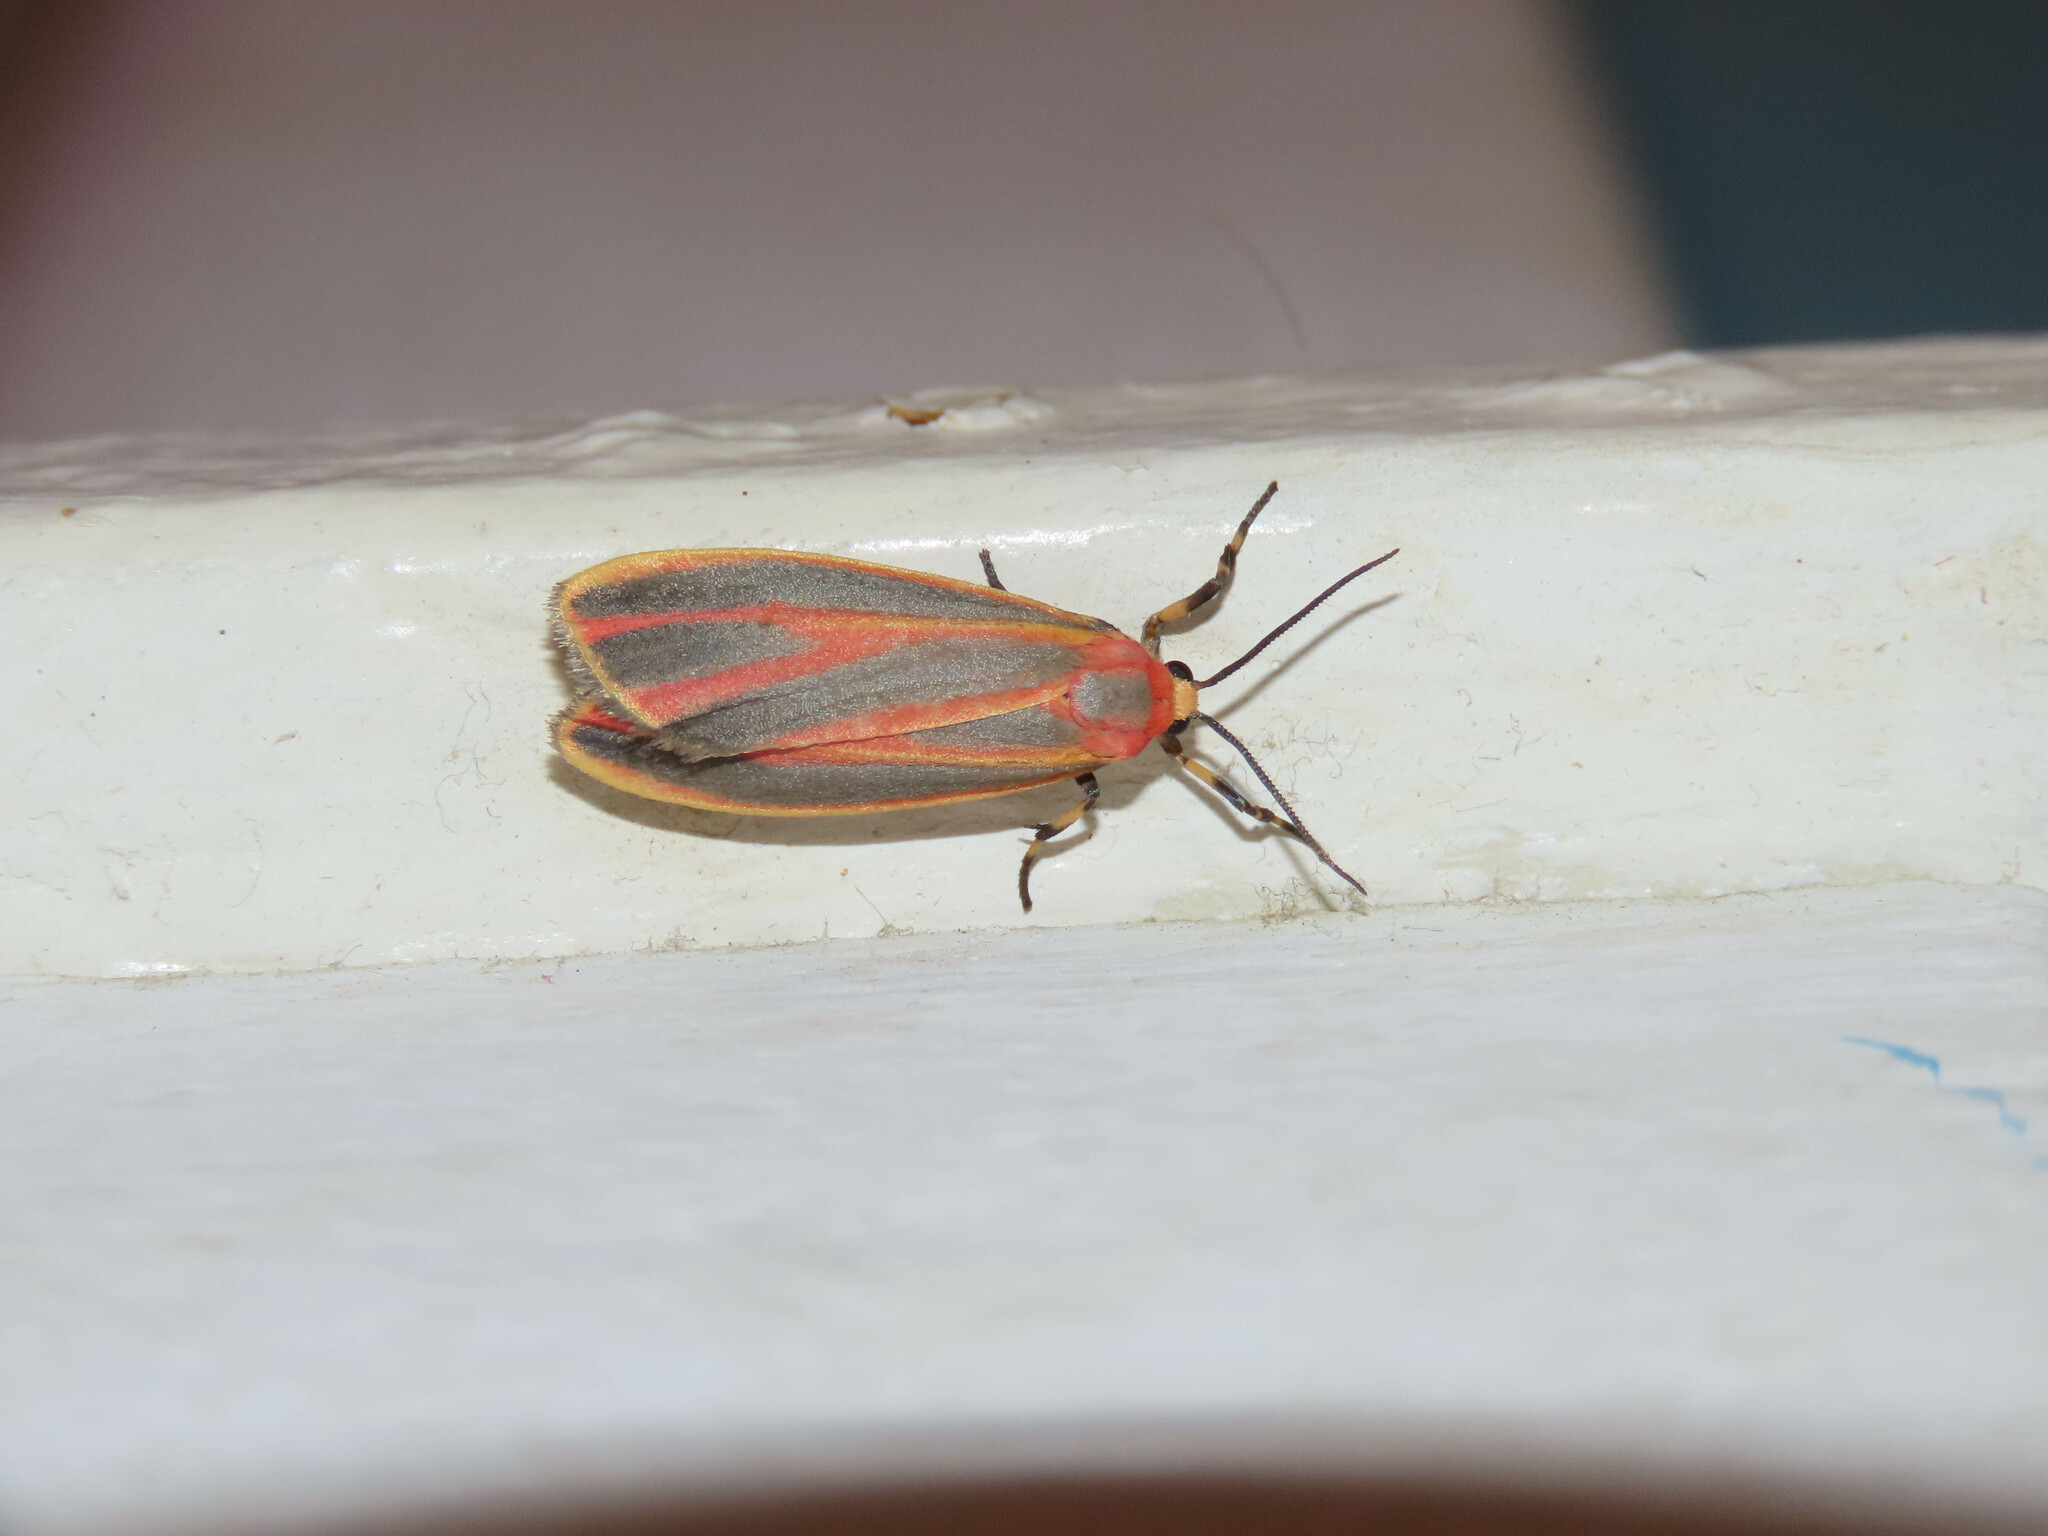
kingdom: Animalia
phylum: Arthropoda
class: Insecta
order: Lepidoptera
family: Erebidae
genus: Hypoprepia
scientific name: Hypoprepia fucosa
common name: Painted lichen moth
